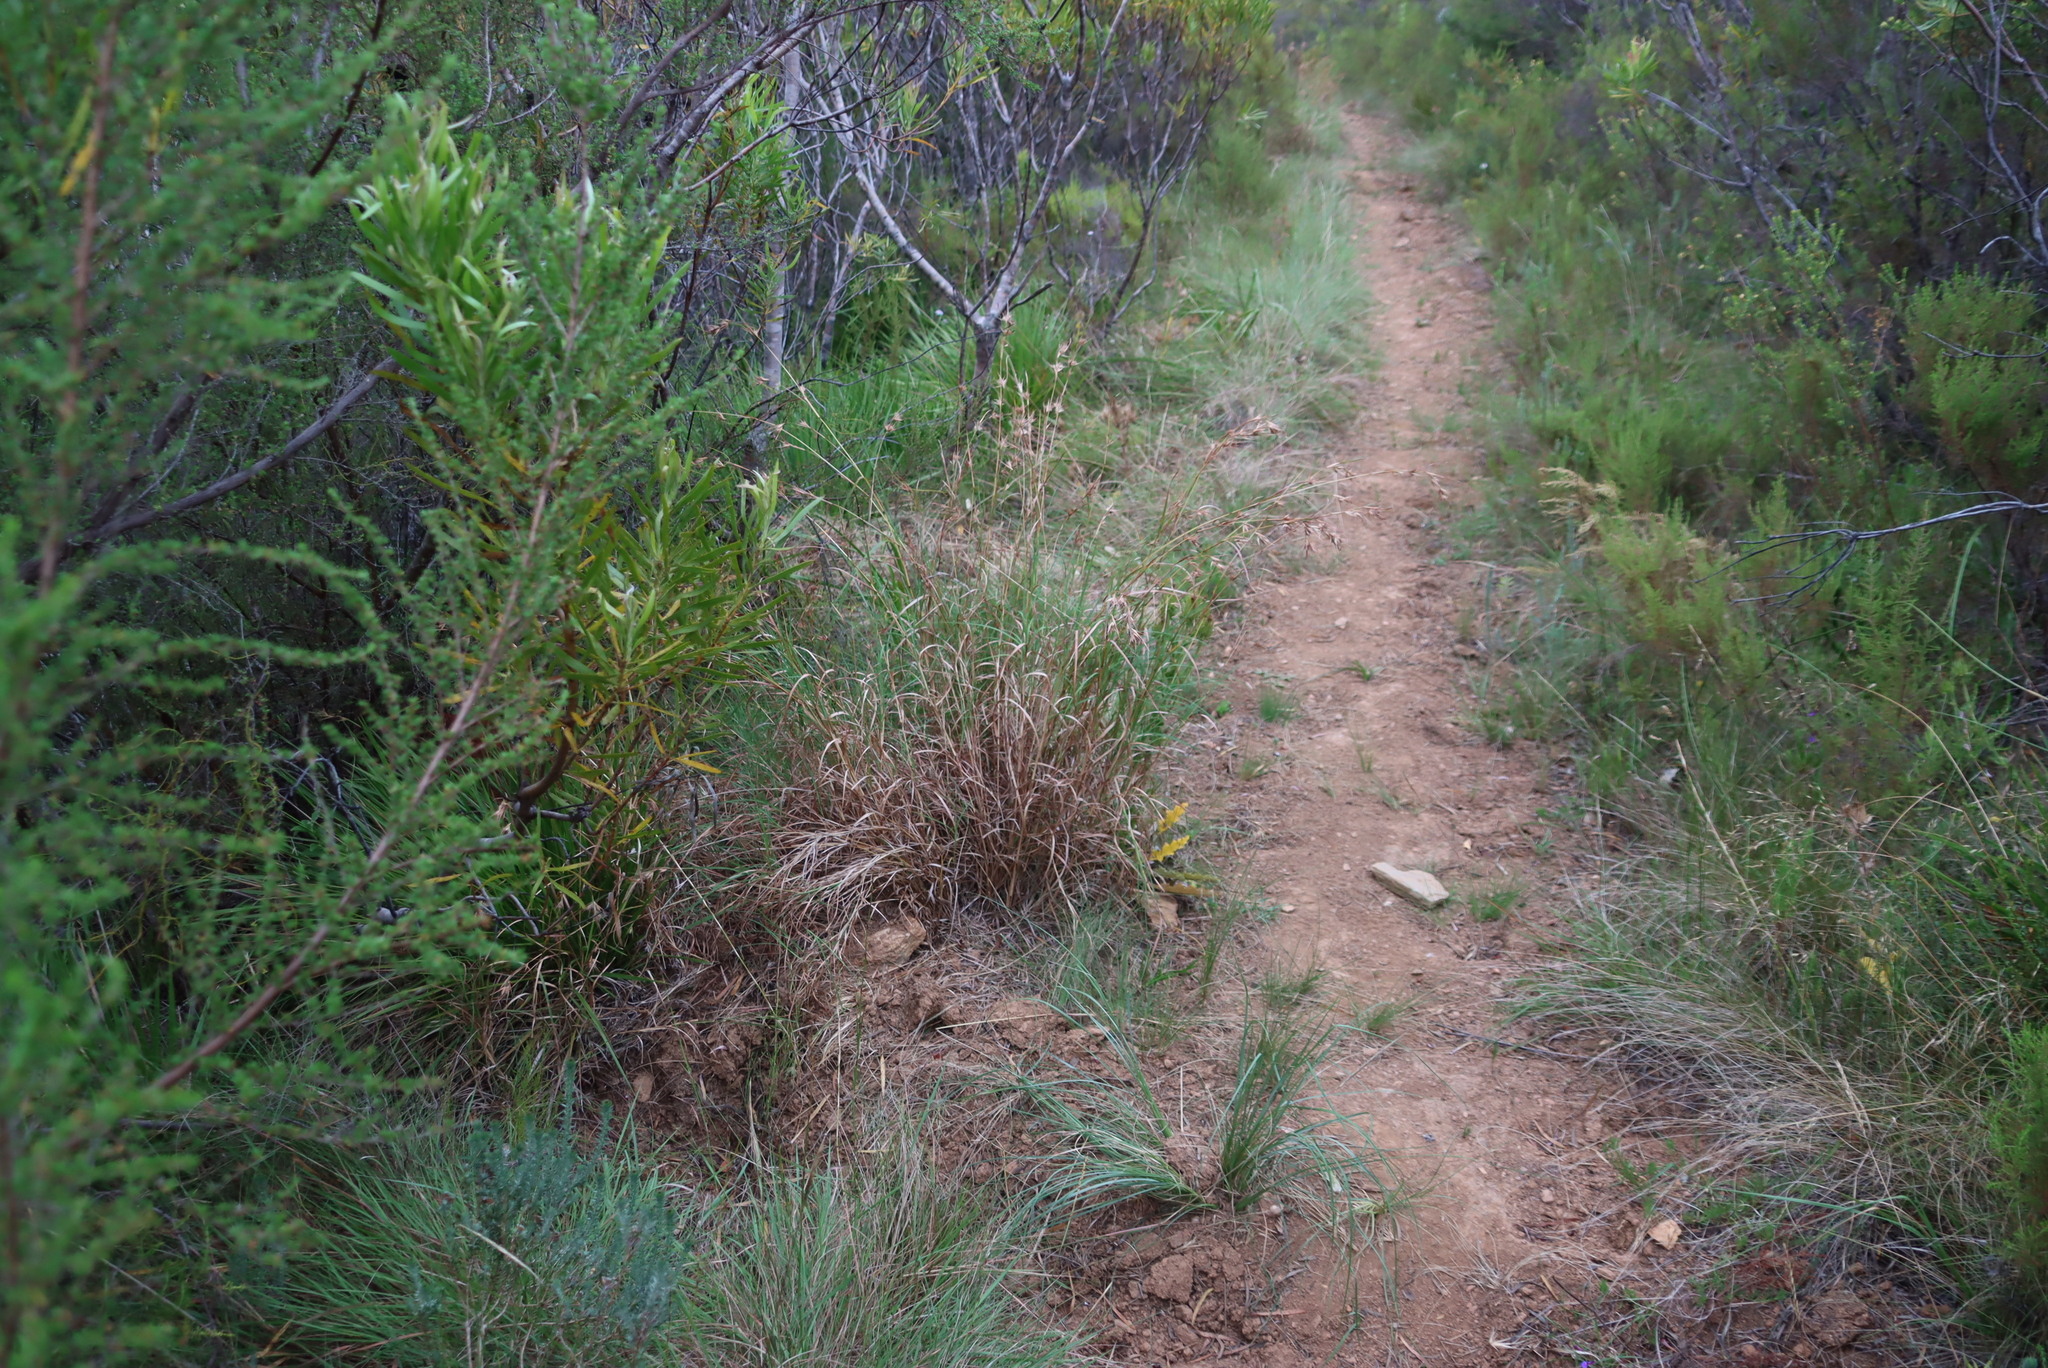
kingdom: Plantae
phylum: Tracheophyta
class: Liliopsida
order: Poales
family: Poaceae
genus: Themeda
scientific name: Themeda triandra
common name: Kangaroo grass
